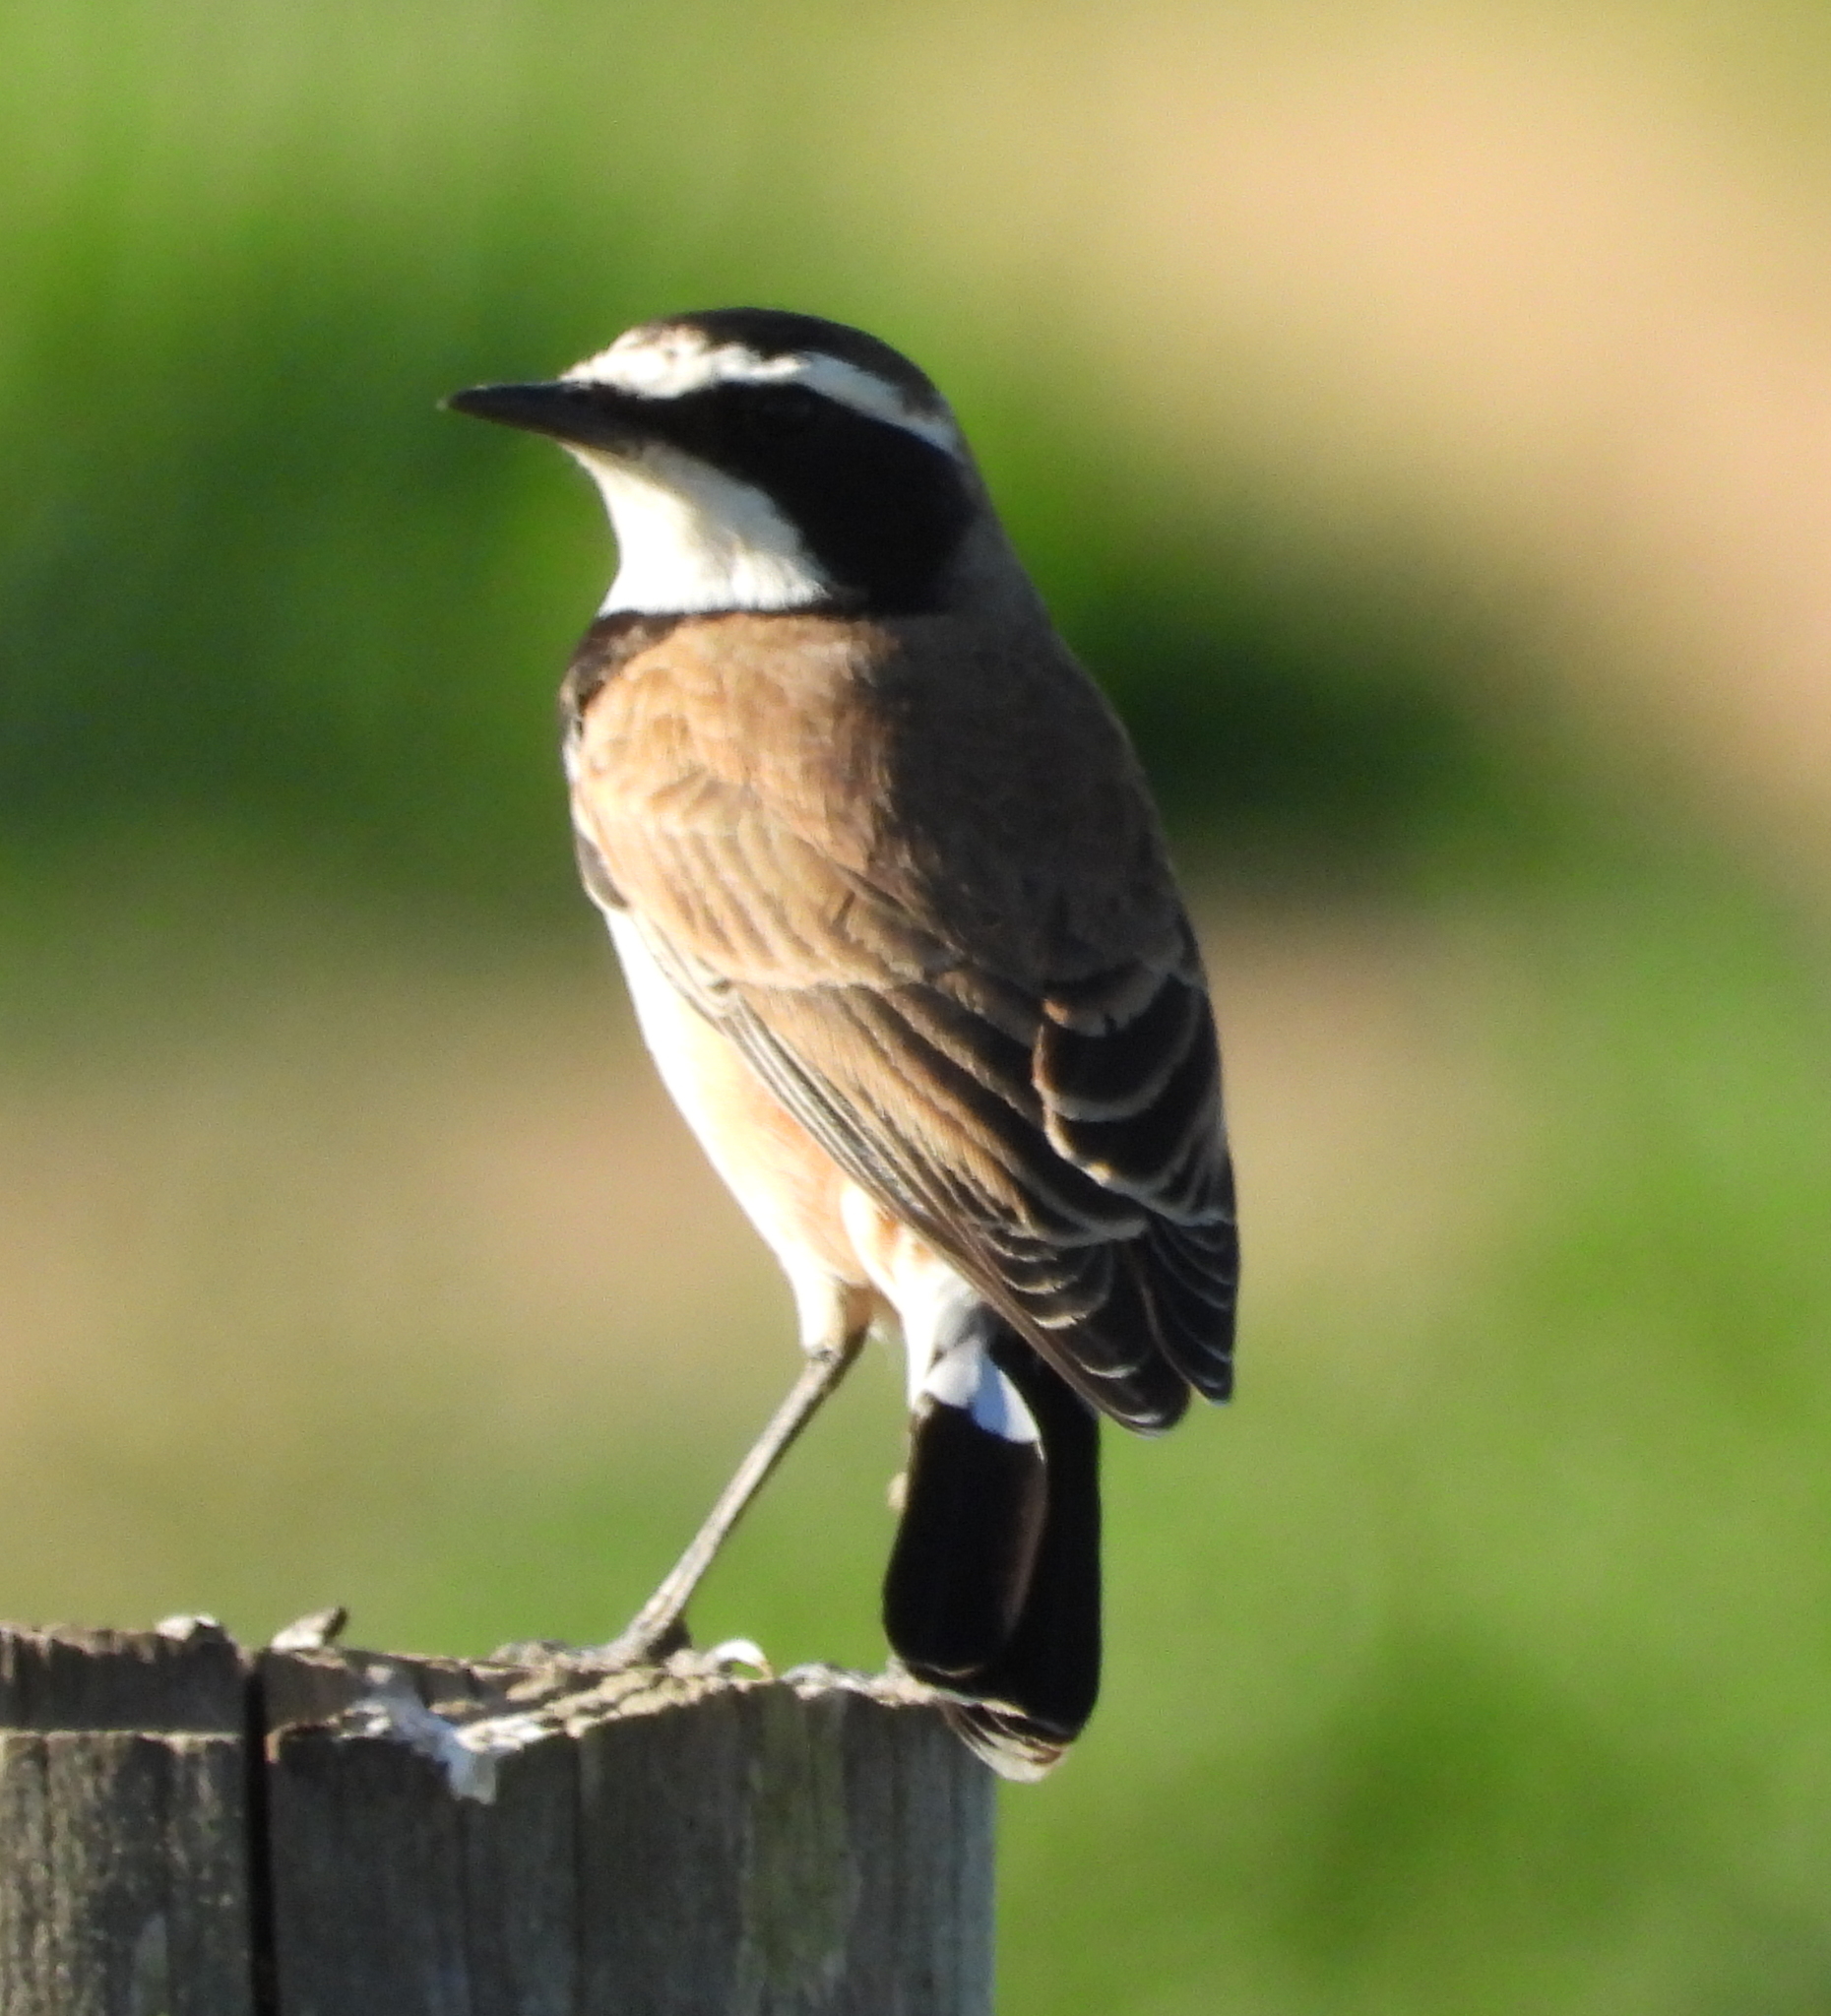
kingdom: Animalia
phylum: Chordata
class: Aves
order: Passeriformes
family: Muscicapidae
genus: Oenanthe
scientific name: Oenanthe pileata
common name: Capped wheatear
